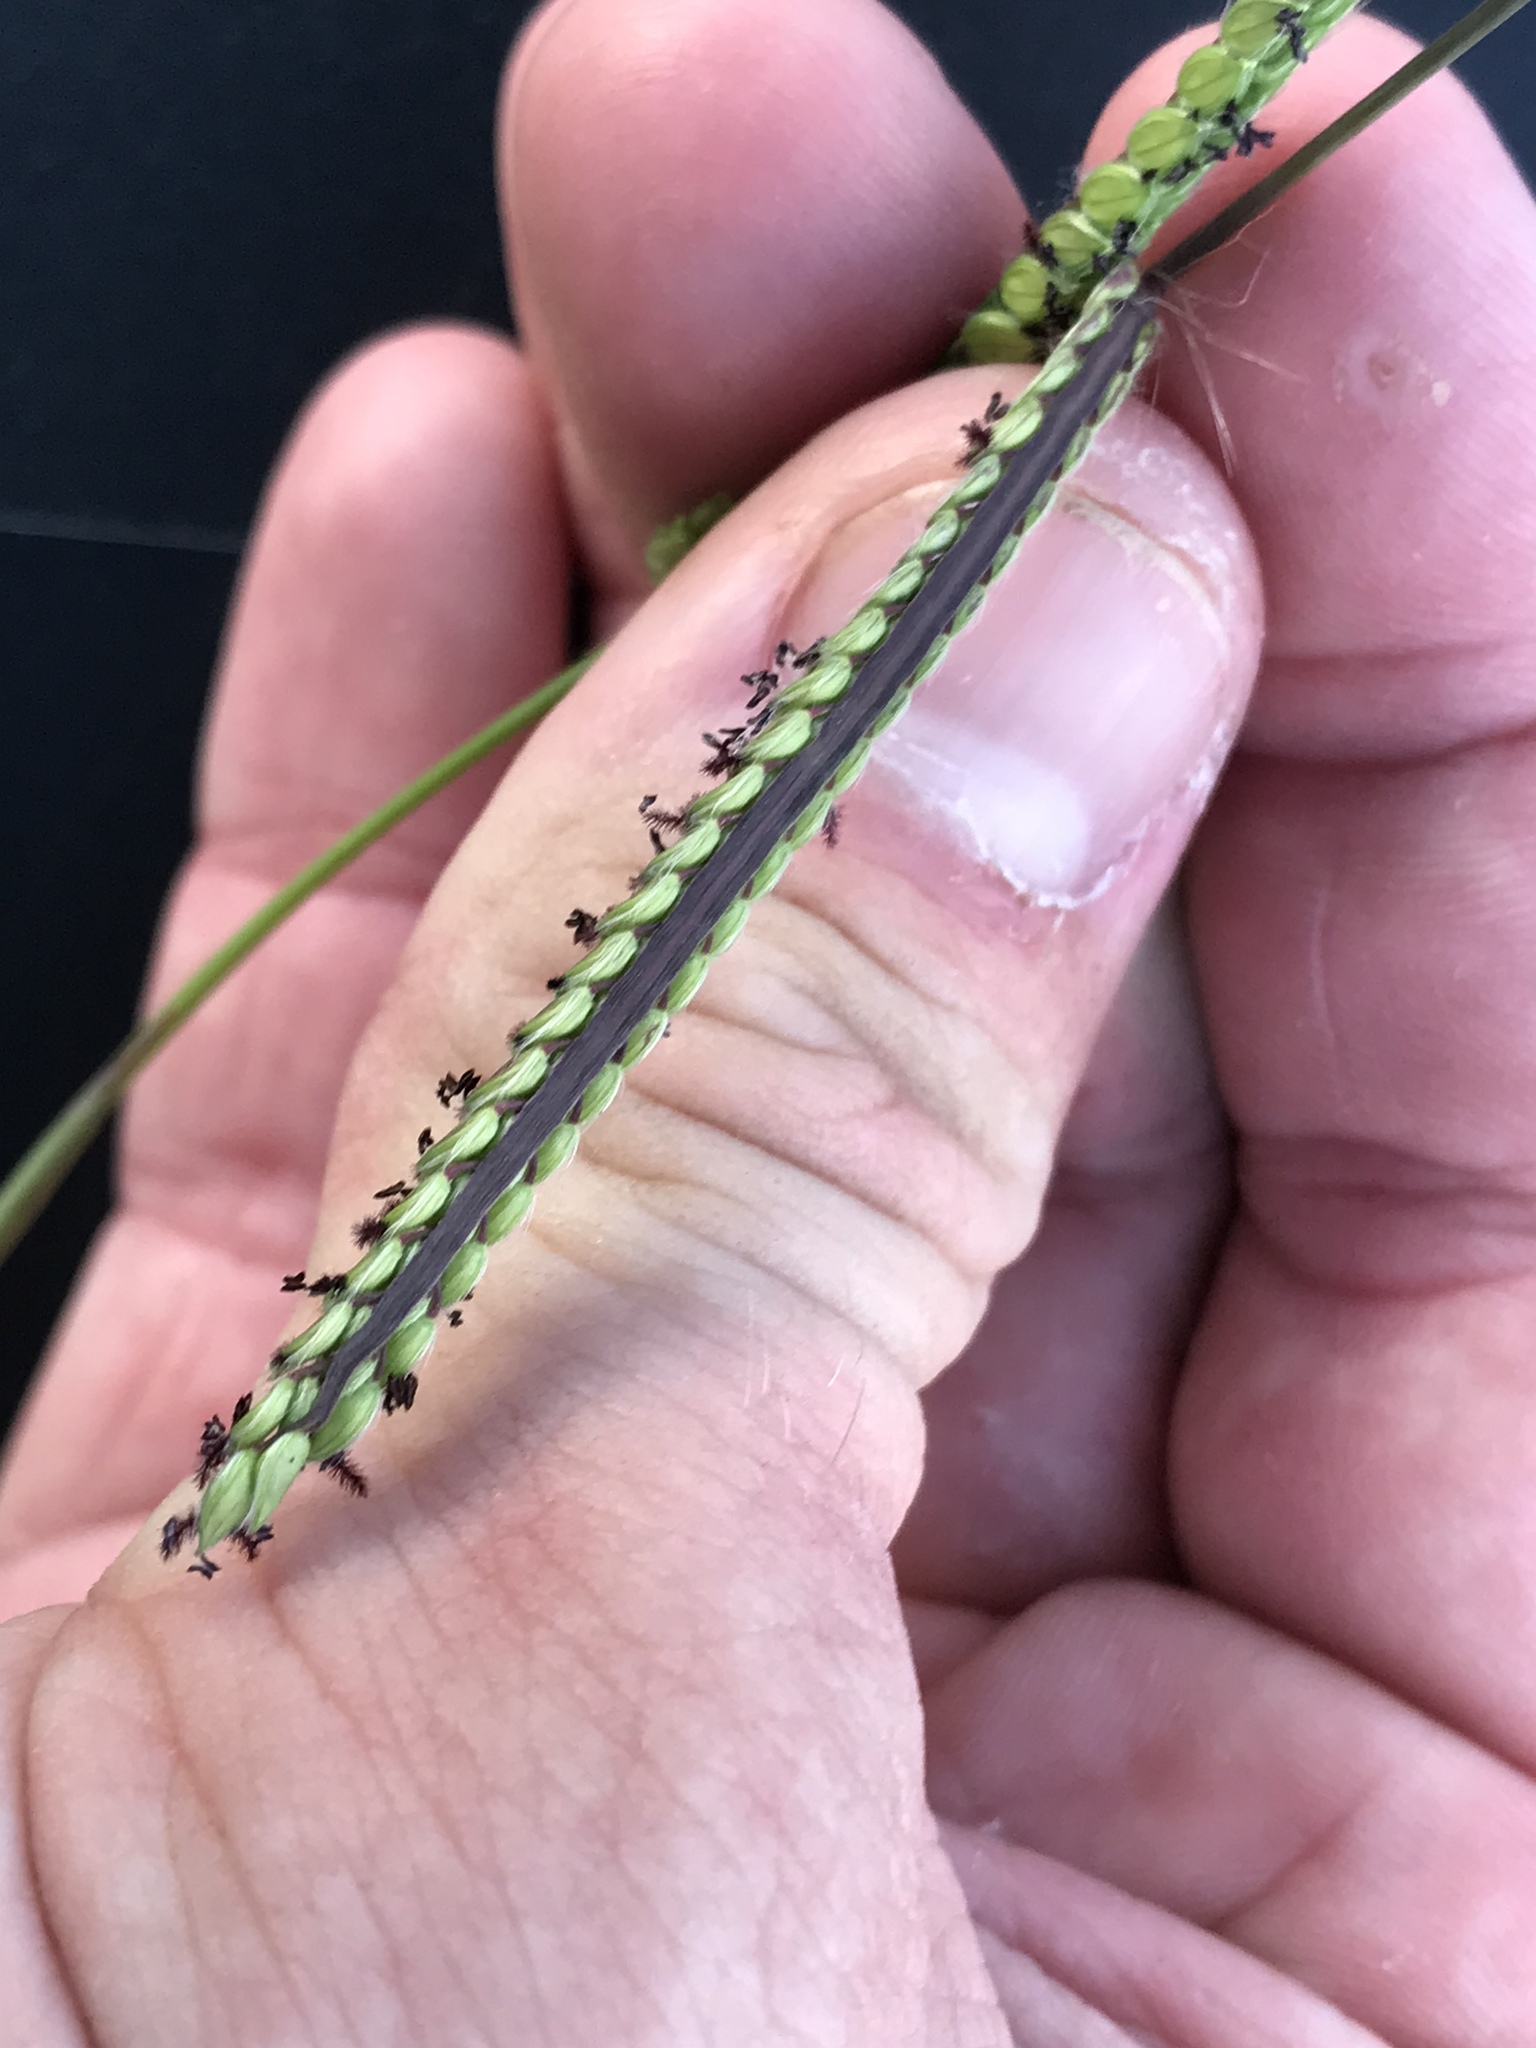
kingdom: Plantae
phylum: Tracheophyta
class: Liliopsida
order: Poales
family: Poaceae
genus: Paspalum
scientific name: Paspalum dilatatum
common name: Dallisgrass
